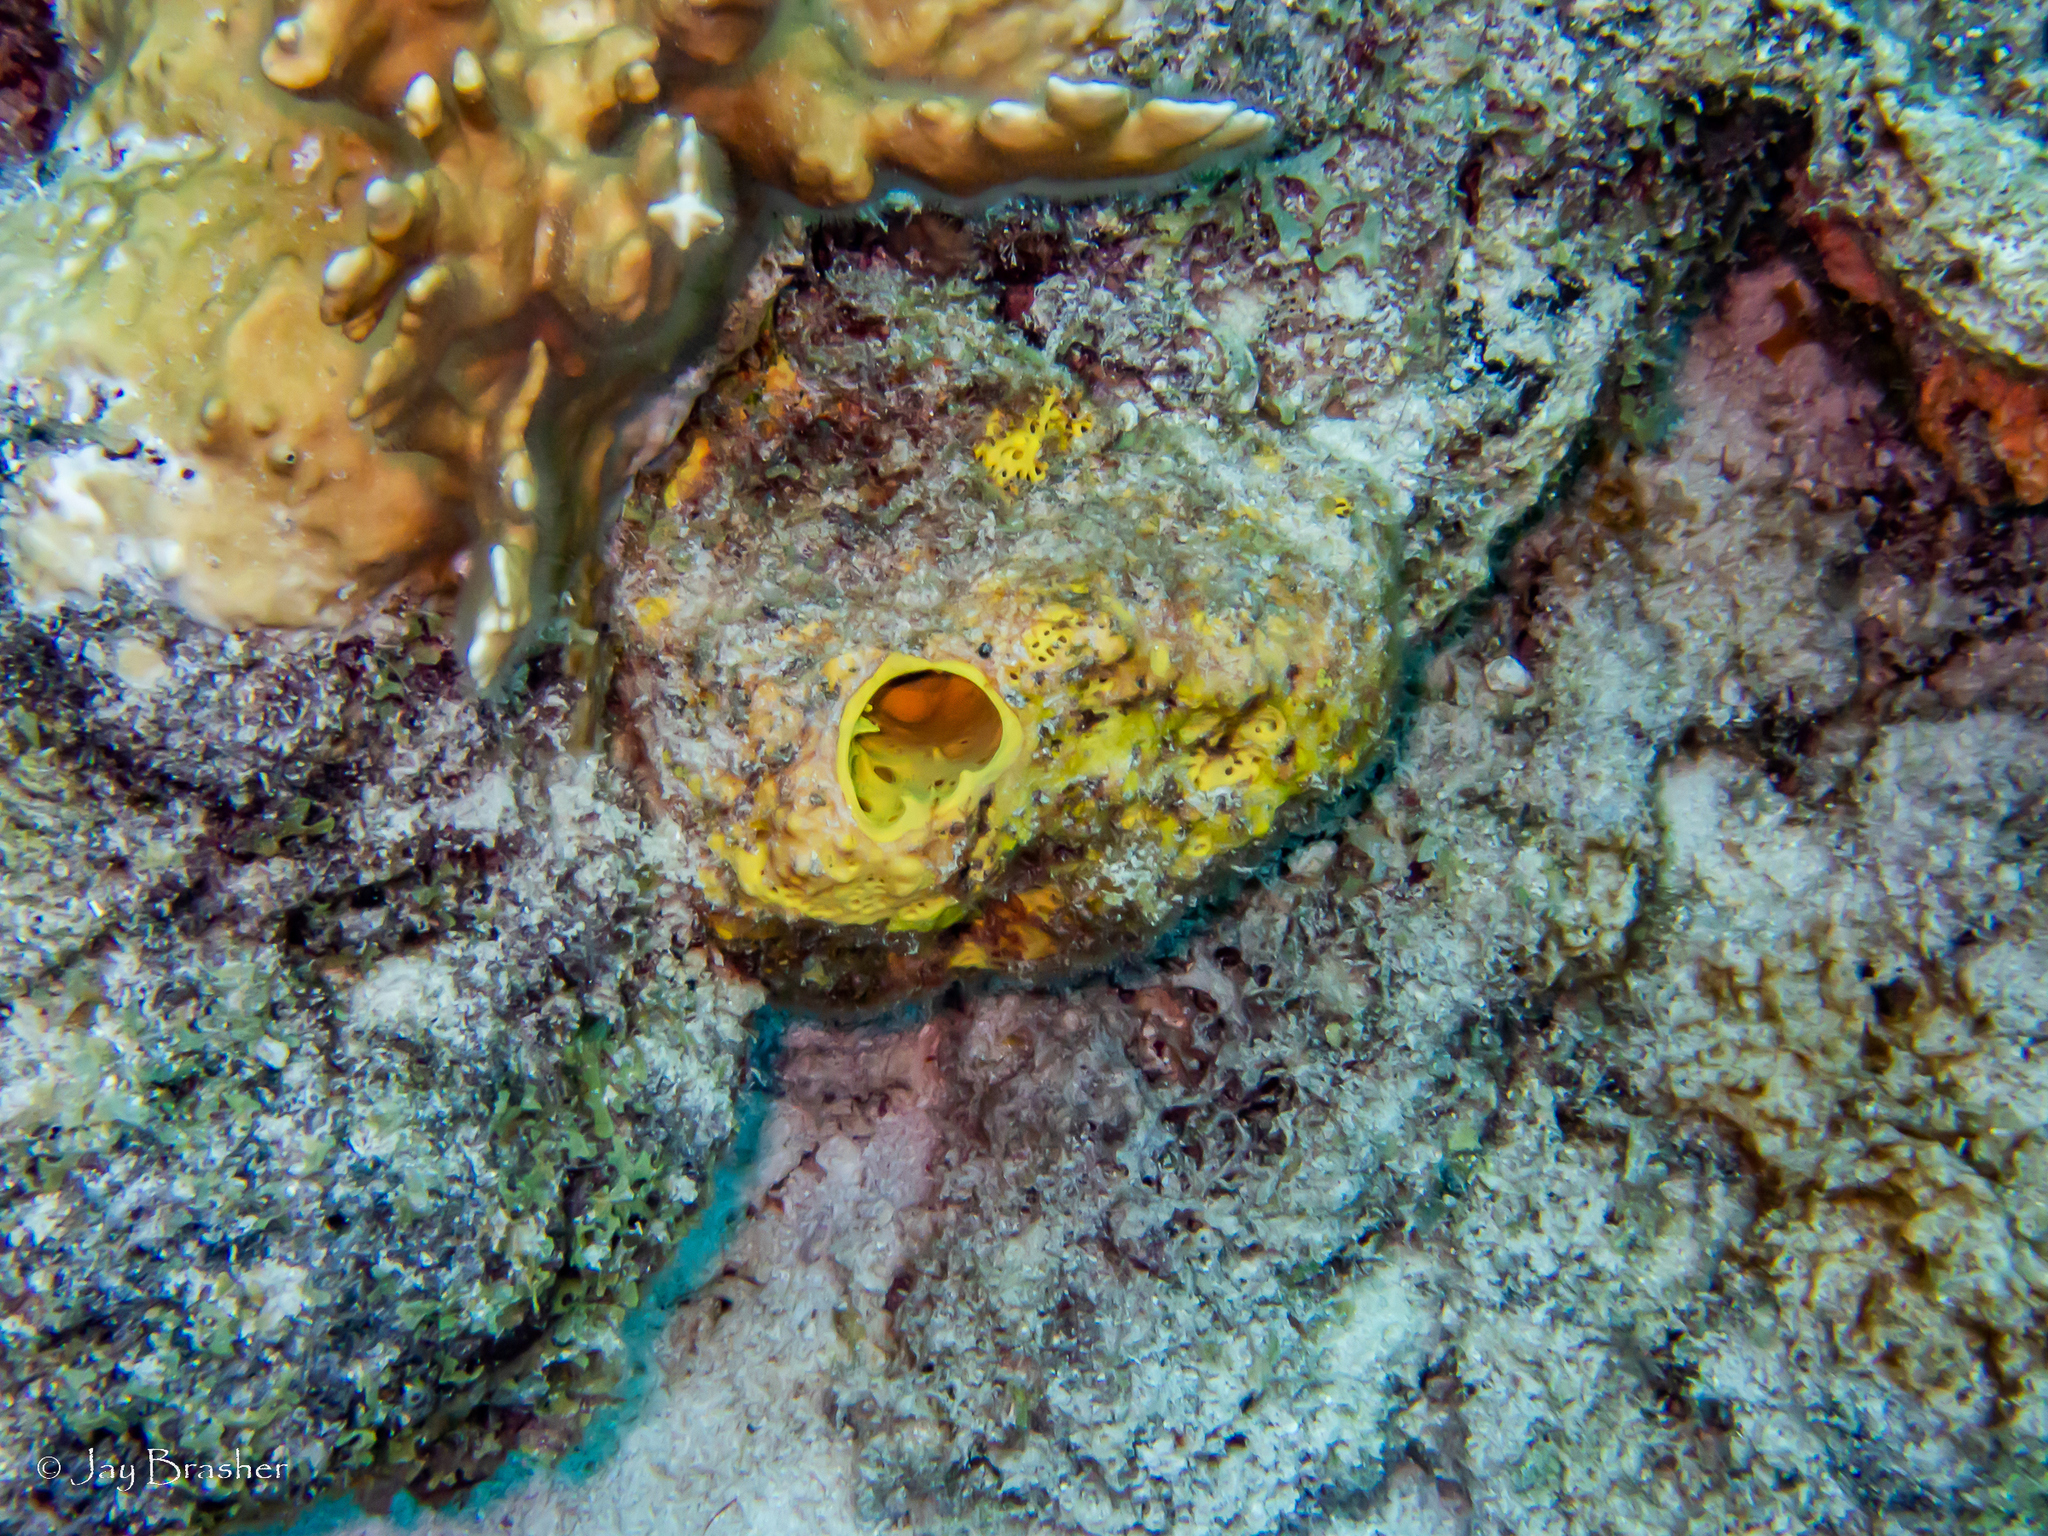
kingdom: Animalia
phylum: Porifera
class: Demospongiae
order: Verongiida
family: Aplysinidae
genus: Aiolochroia
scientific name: Aiolochroia crassa
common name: Branching tube sponge
